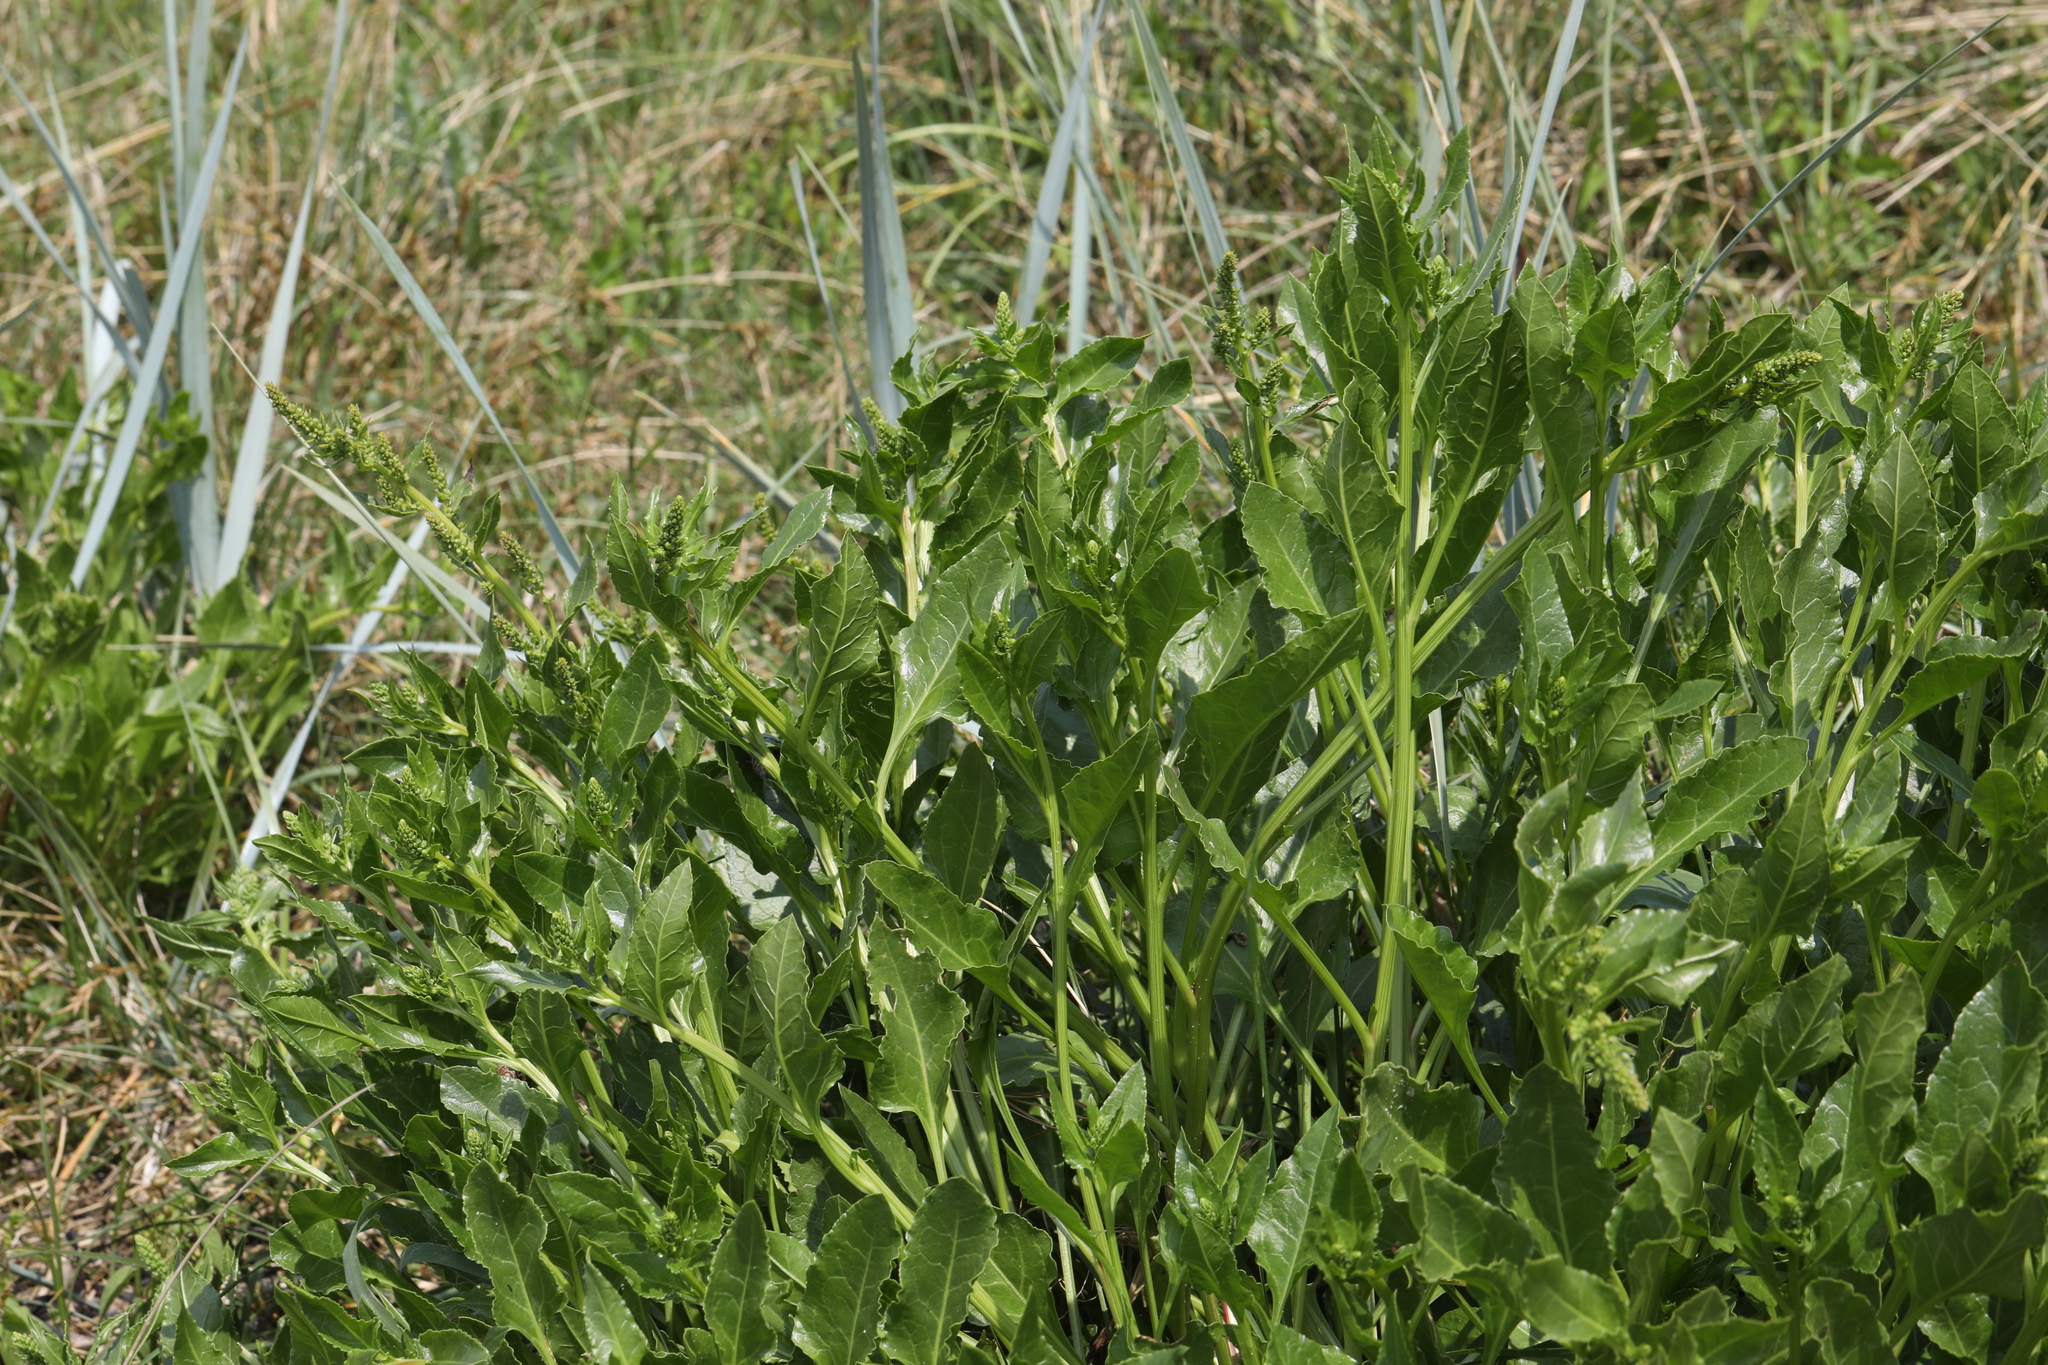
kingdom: Plantae
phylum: Tracheophyta
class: Magnoliopsida
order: Caryophyllales
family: Amaranthaceae
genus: Beta
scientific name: Beta vulgaris
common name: Beet
